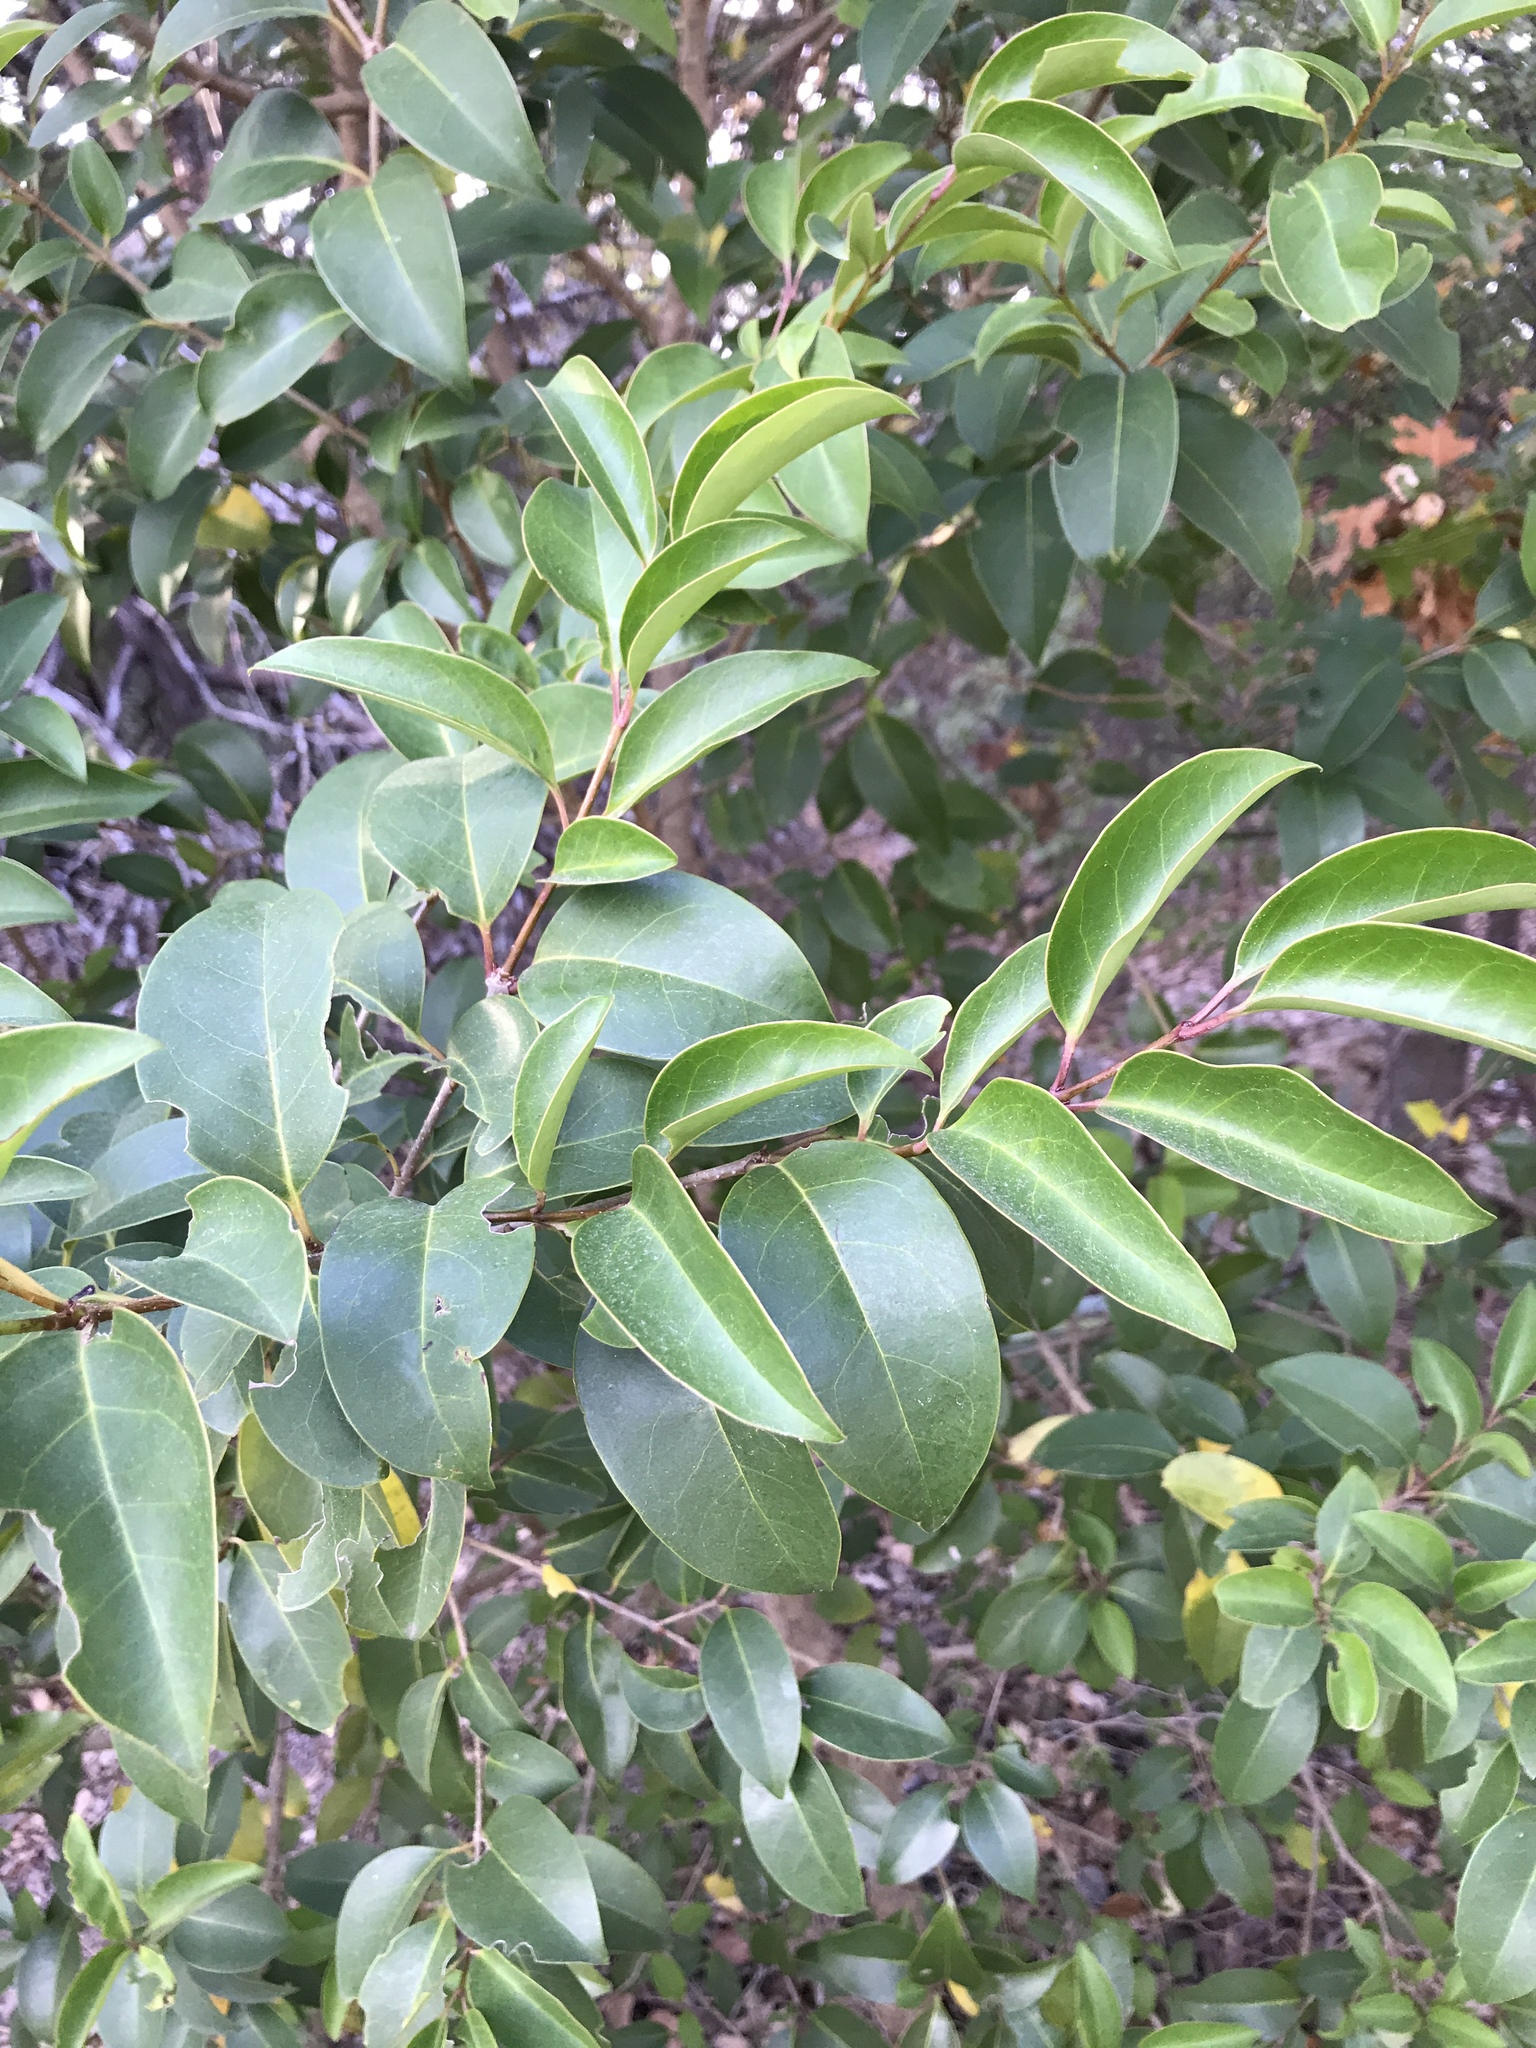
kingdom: Plantae
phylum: Tracheophyta
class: Magnoliopsida
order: Lamiales
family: Oleaceae
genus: Ligustrum
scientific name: Ligustrum lucidum
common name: Glossy privet
